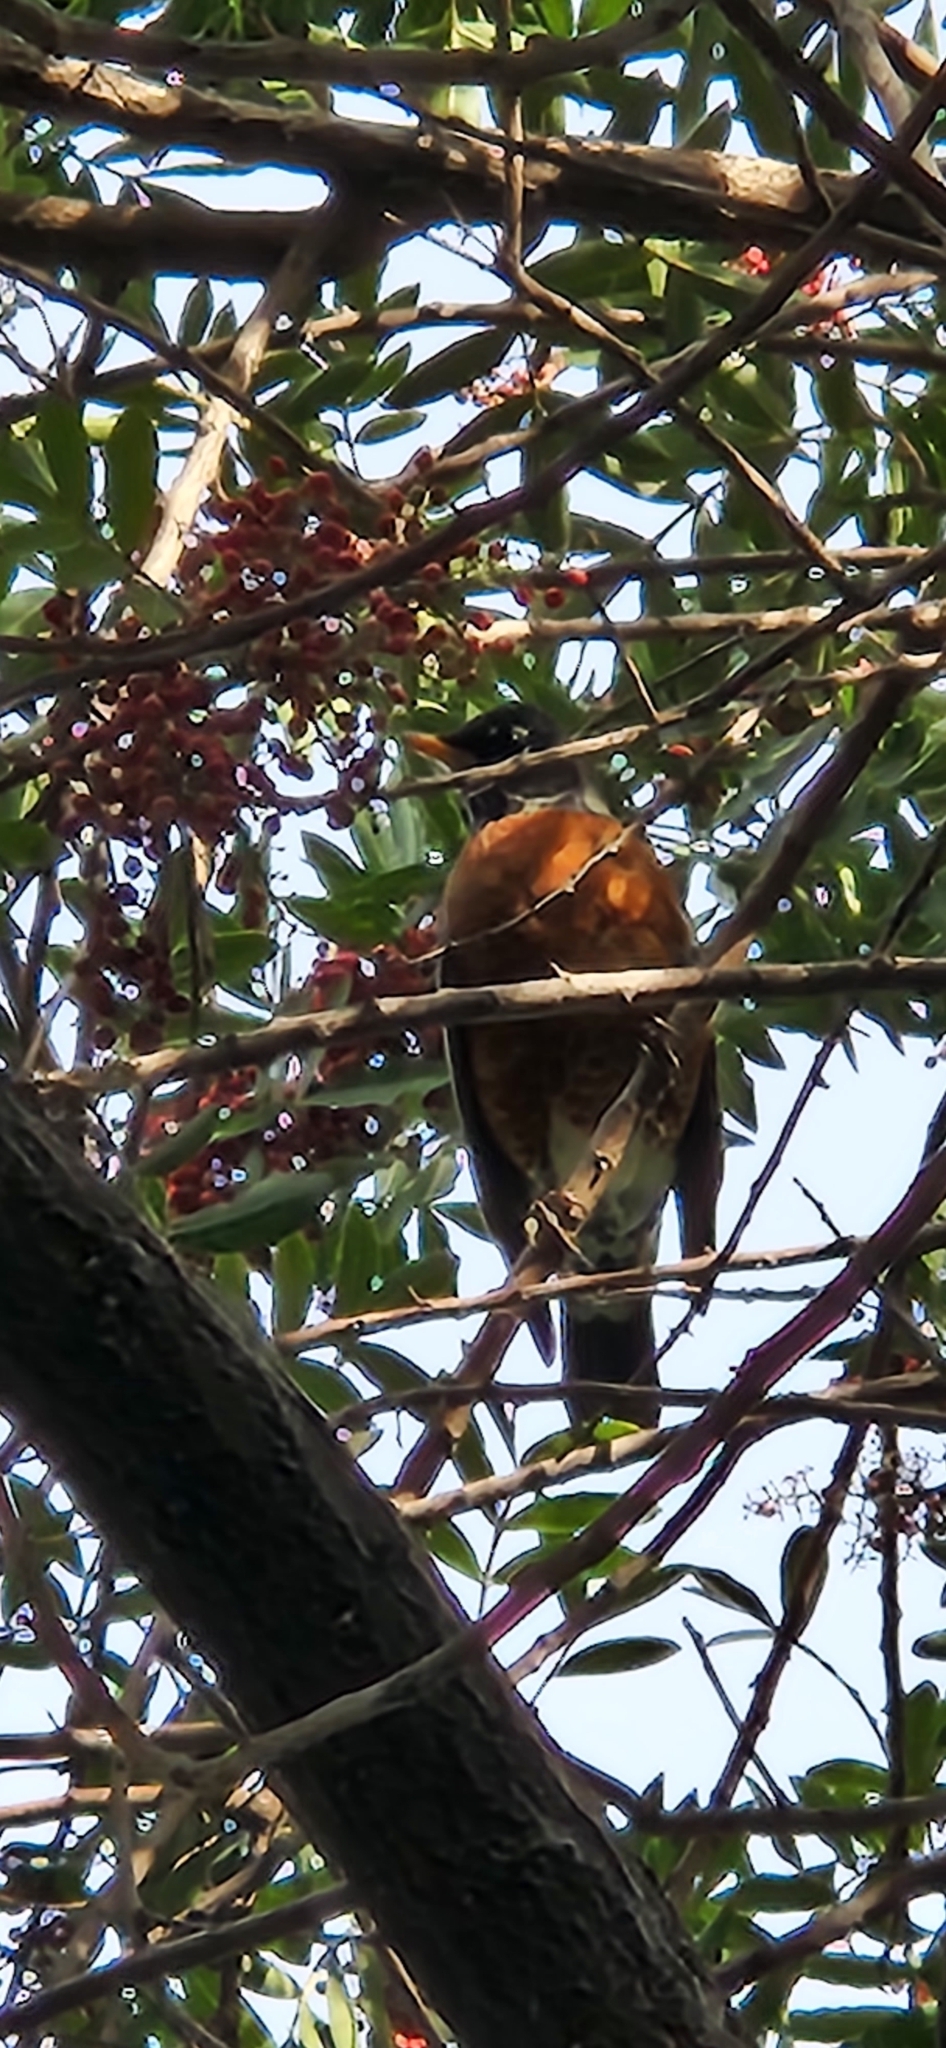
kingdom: Animalia
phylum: Chordata
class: Aves
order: Passeriformes
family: Turdidae
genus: Turdus
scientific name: Turdus migratorius
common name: American robin
